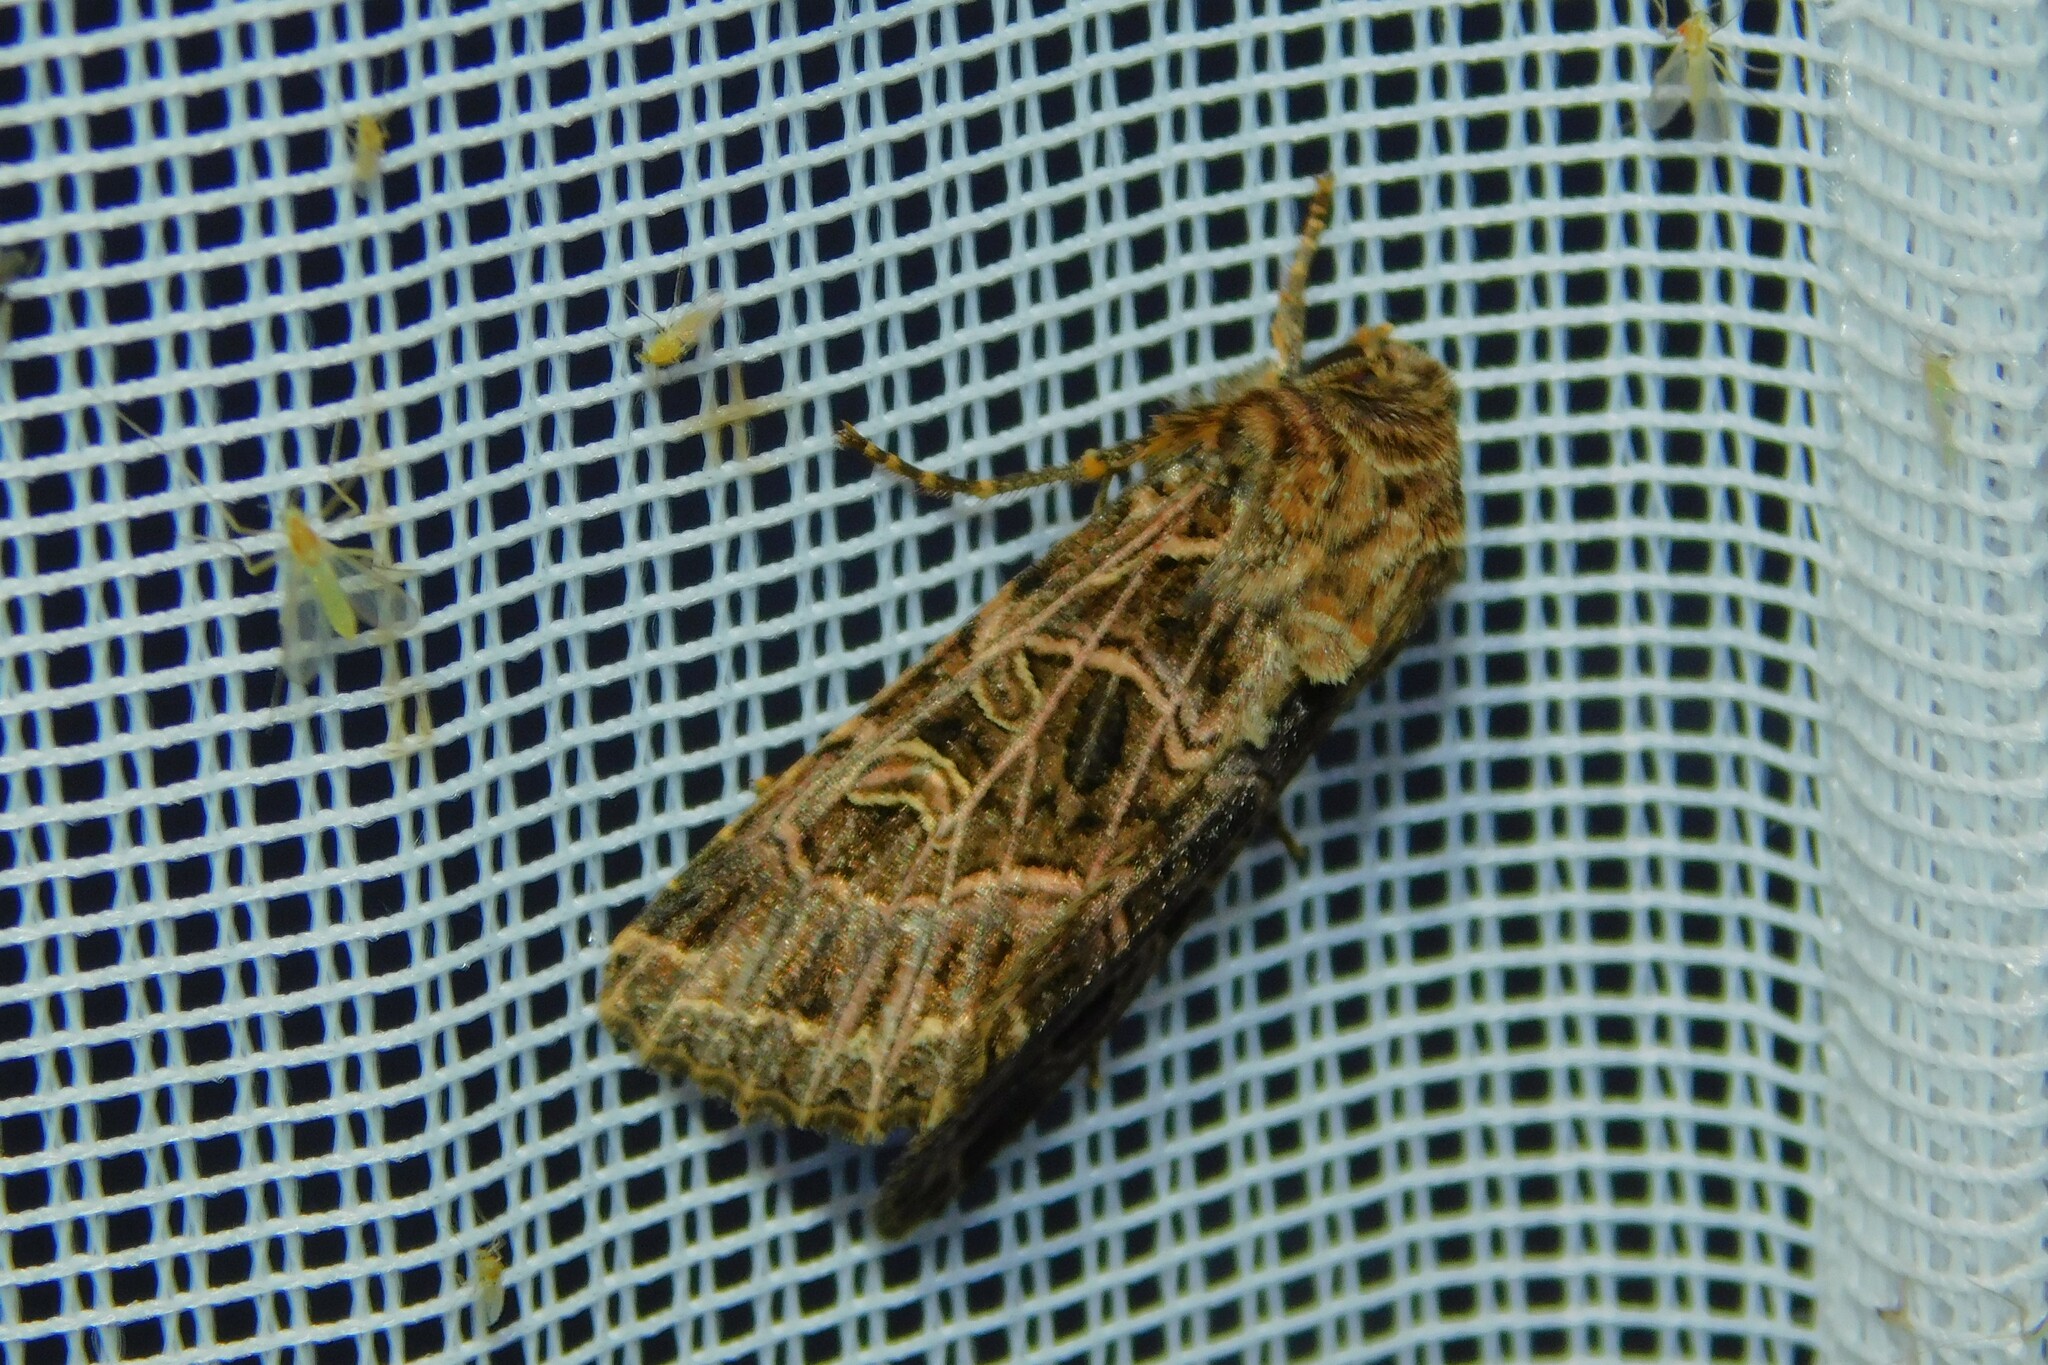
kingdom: Animalia
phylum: Arthropoda
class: Insecta
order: Lepidoptera
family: Noctuidae
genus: Sideridis
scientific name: Sideridis reticulata
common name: Bordered gothic
